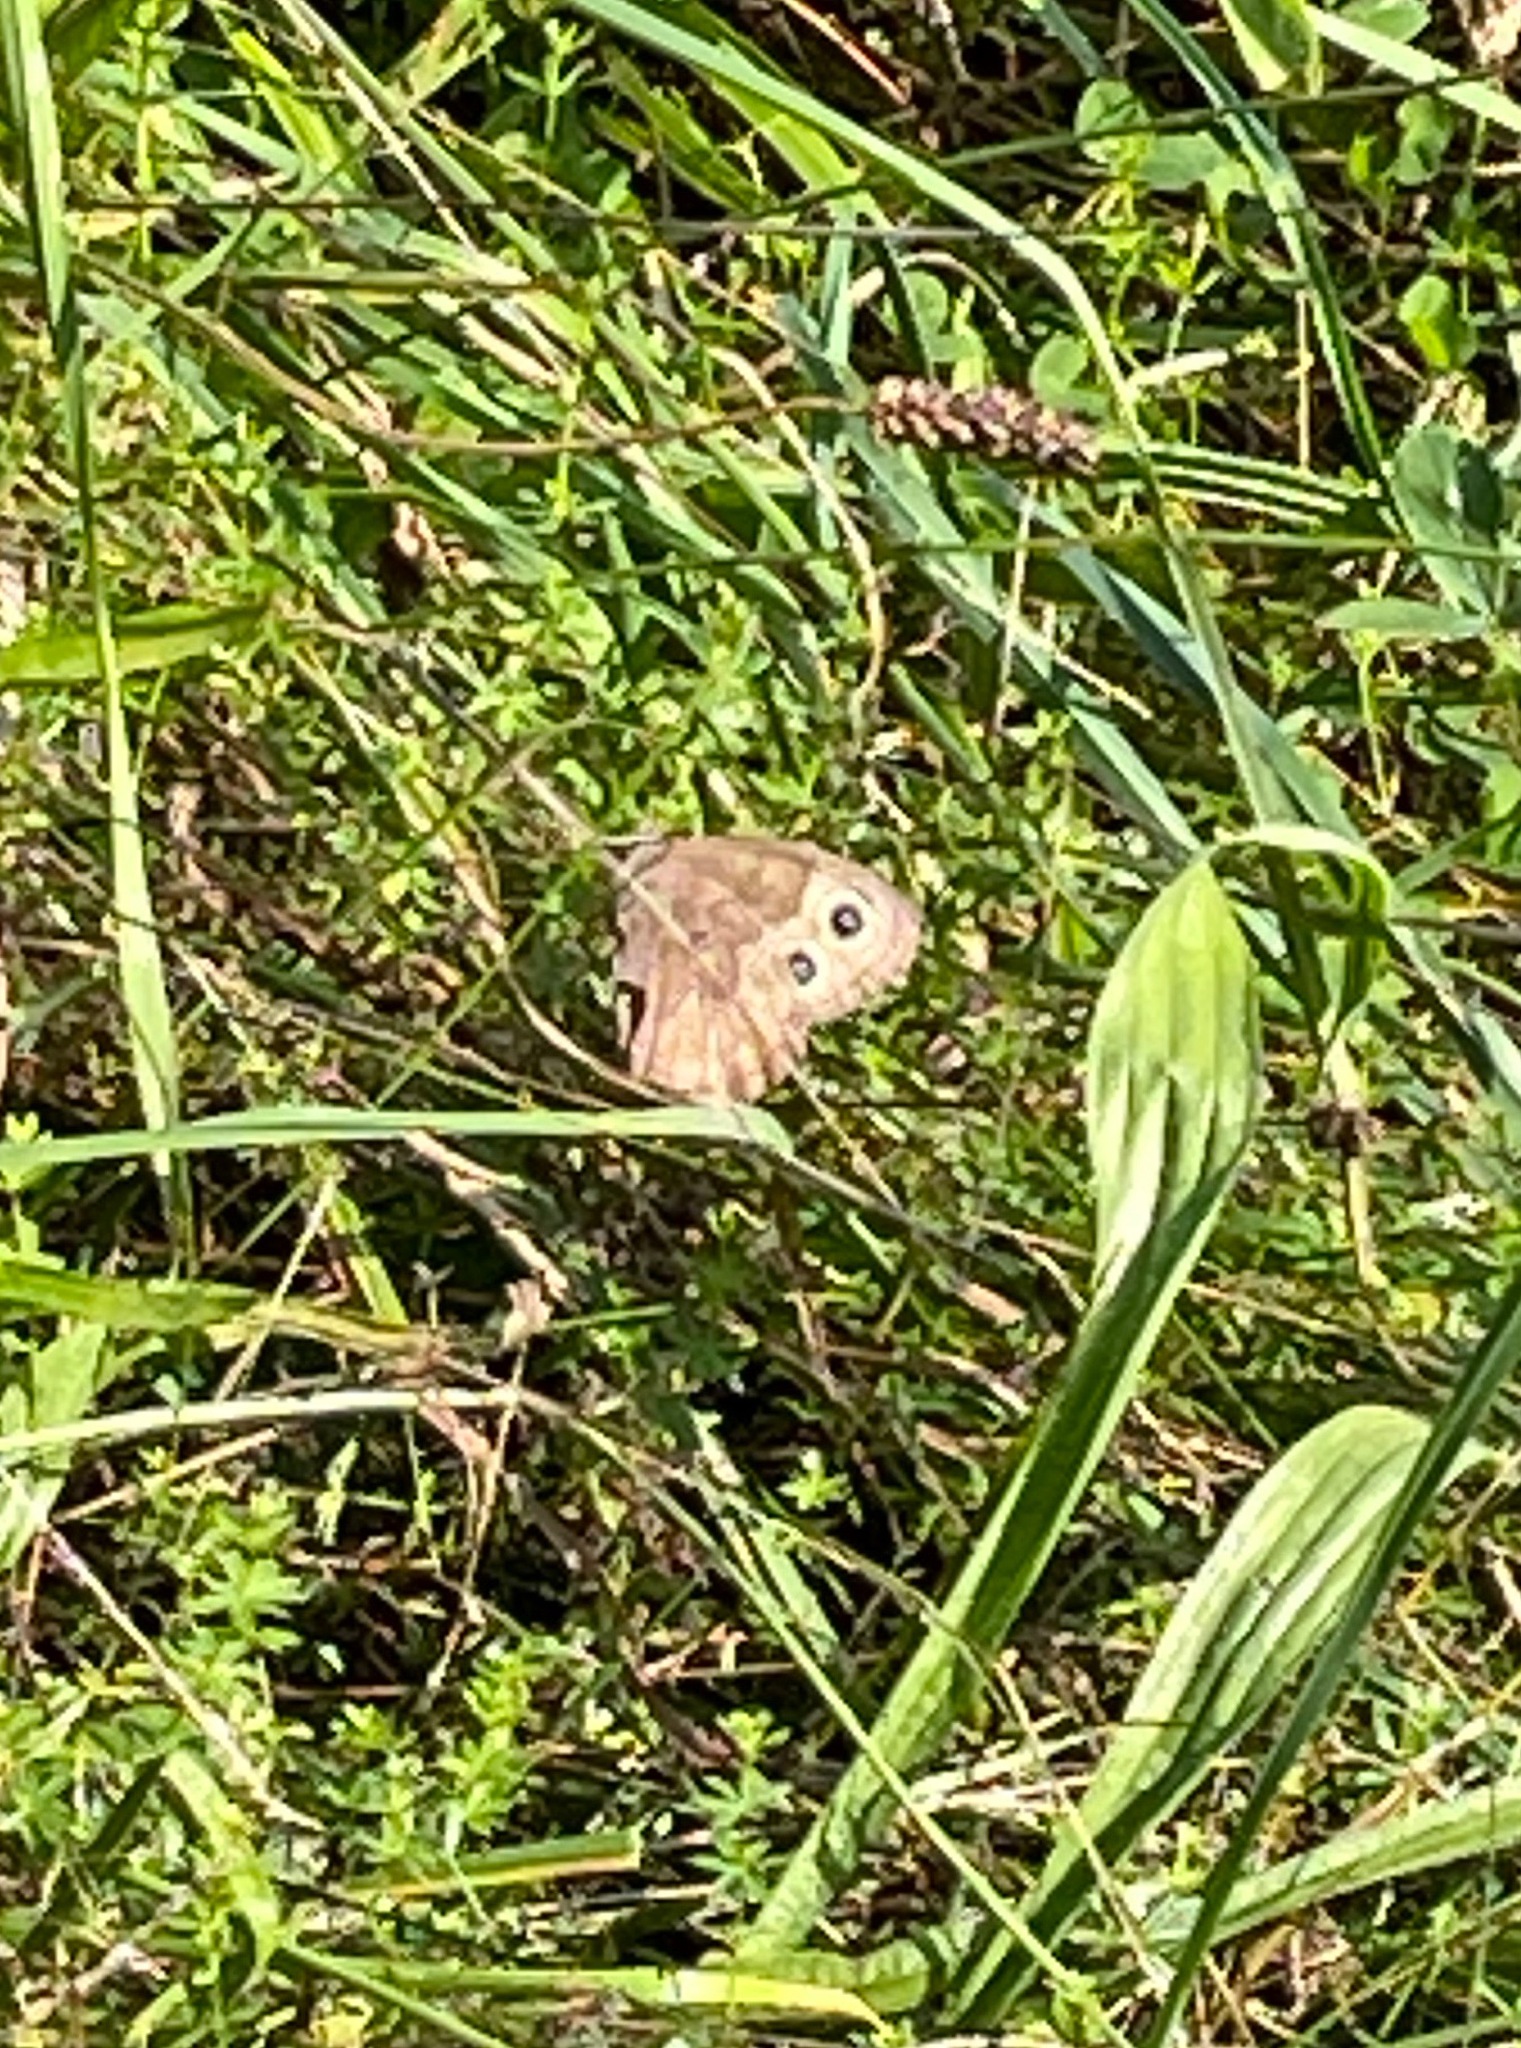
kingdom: Animalia
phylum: Arthropoda
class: Insecta
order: Lepidoptera
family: Nymphalidae
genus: Cercyonis
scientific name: Cercyonis pegala
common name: Common wood-nymph
